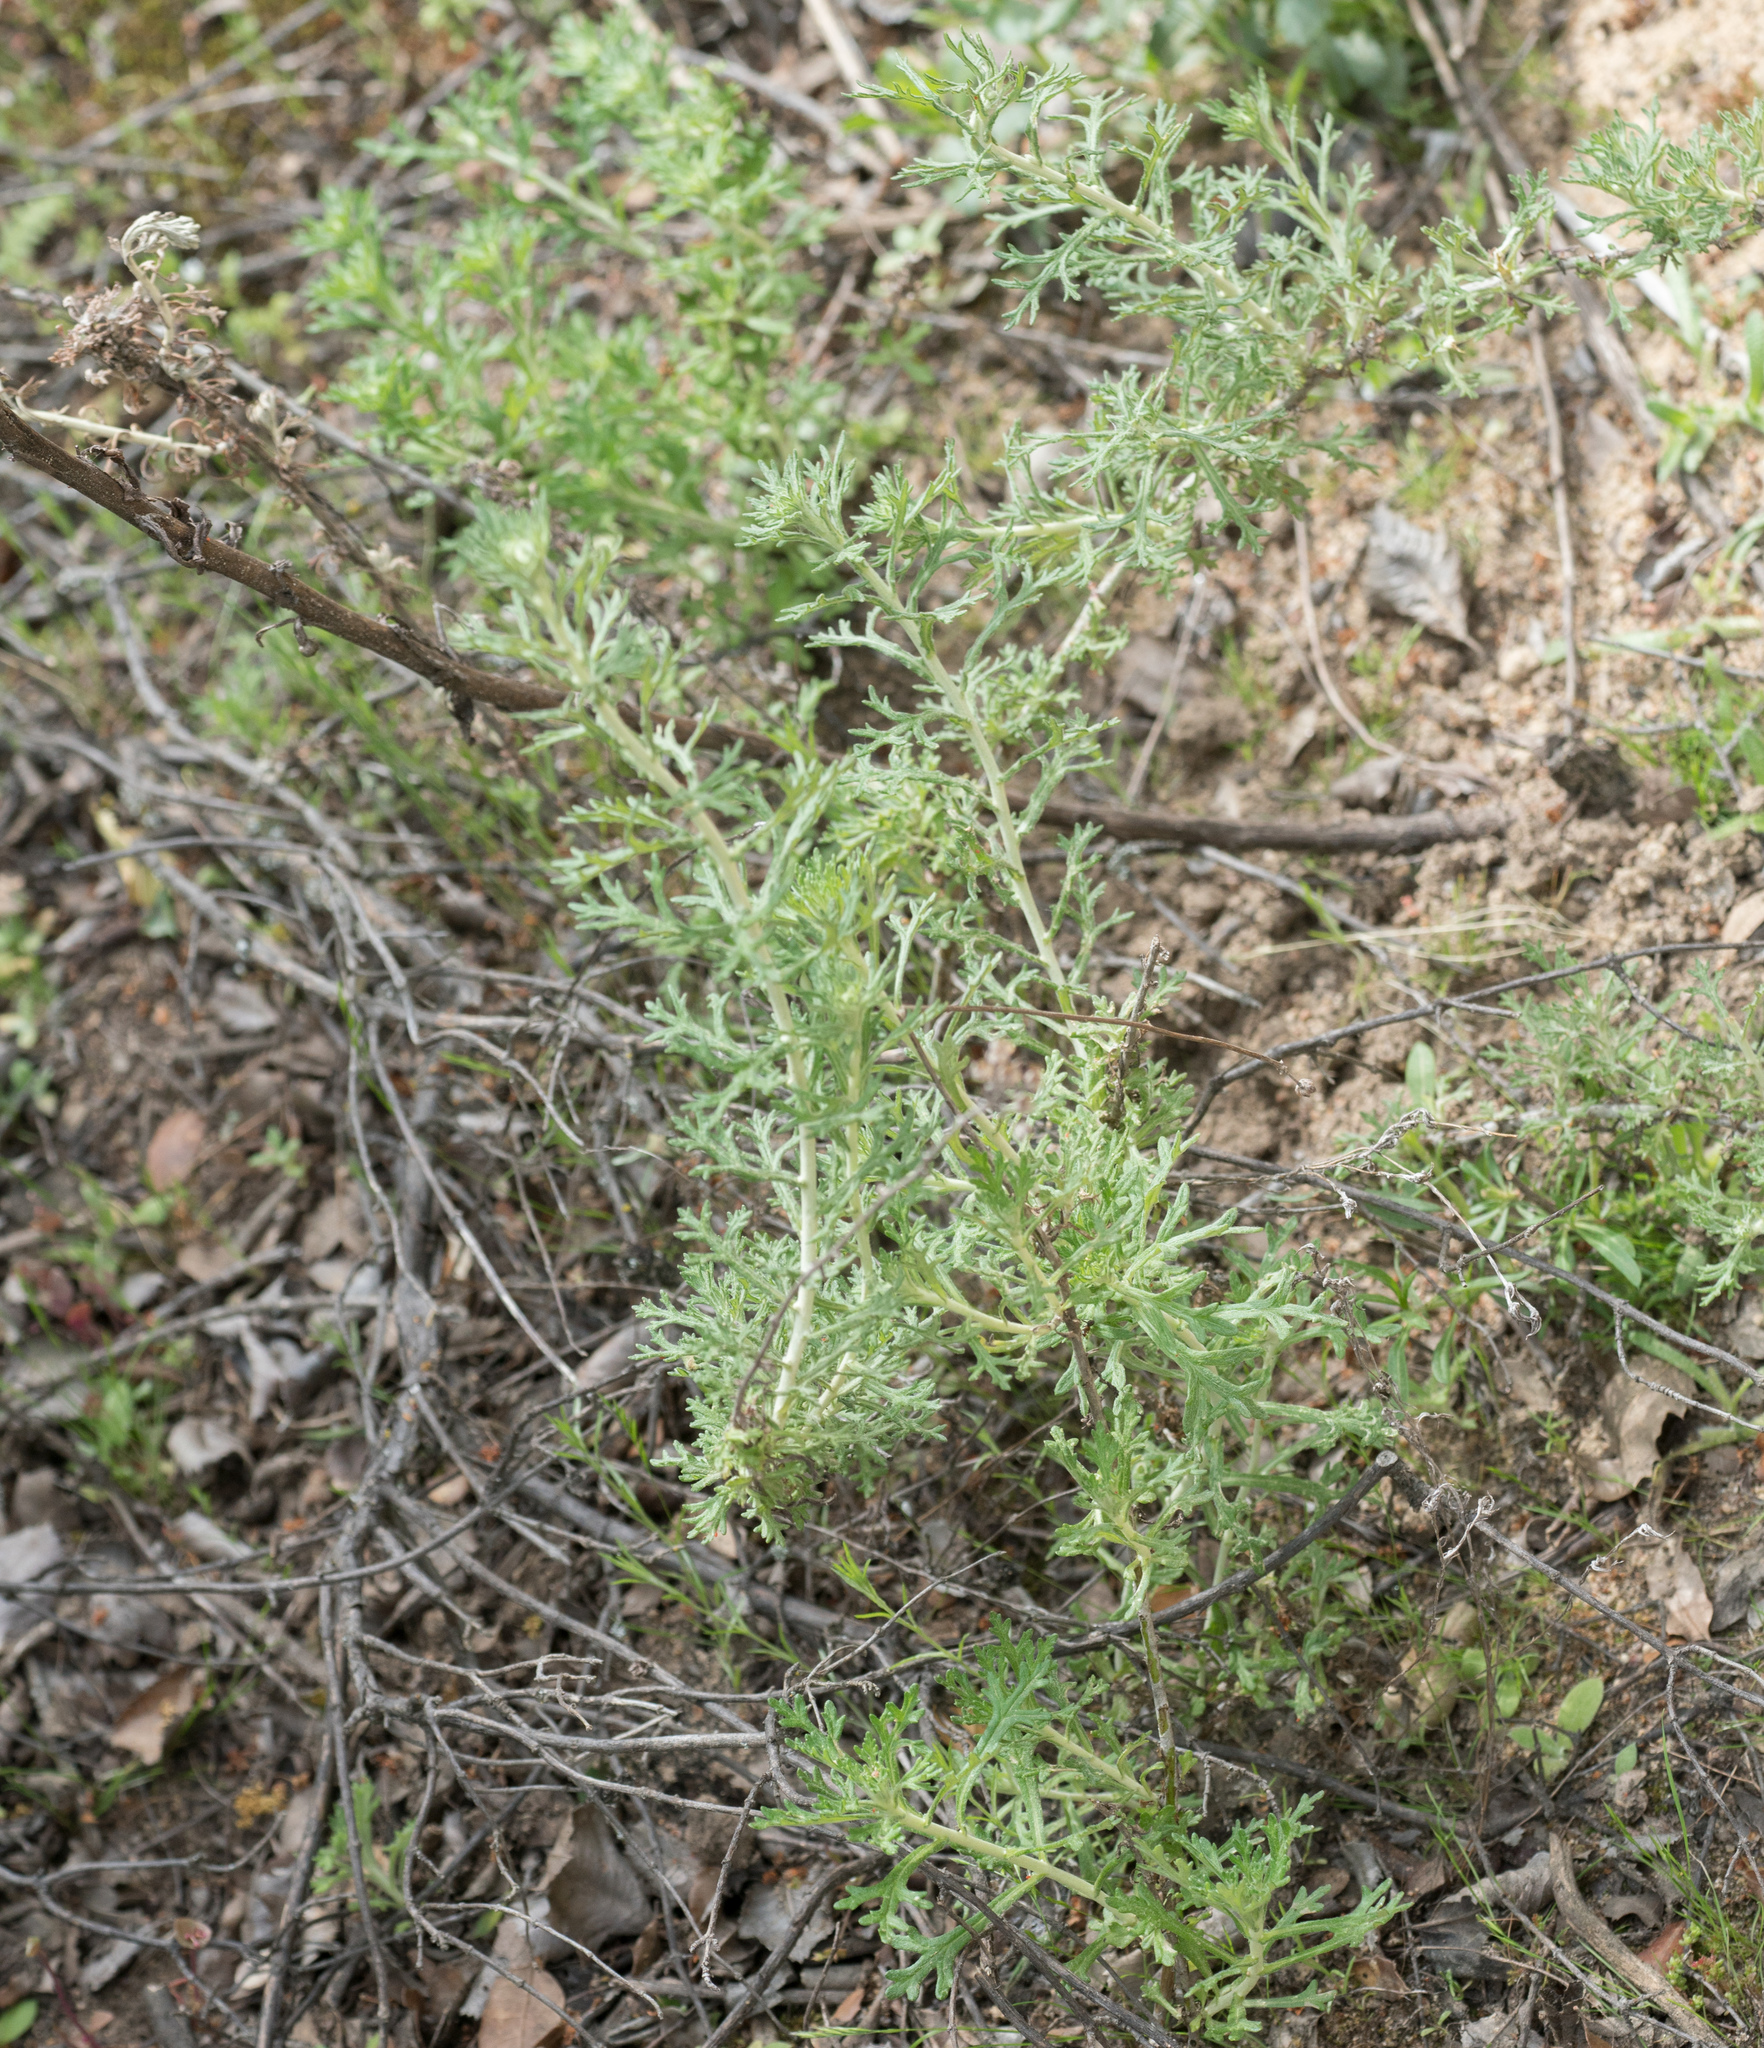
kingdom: Plantae
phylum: Tracheophyta
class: Magnoliopsida
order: Asterales
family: Asteraceae
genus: Eriophyllum
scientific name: Eriophyllum confertiflorum
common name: Golden-yarrow
